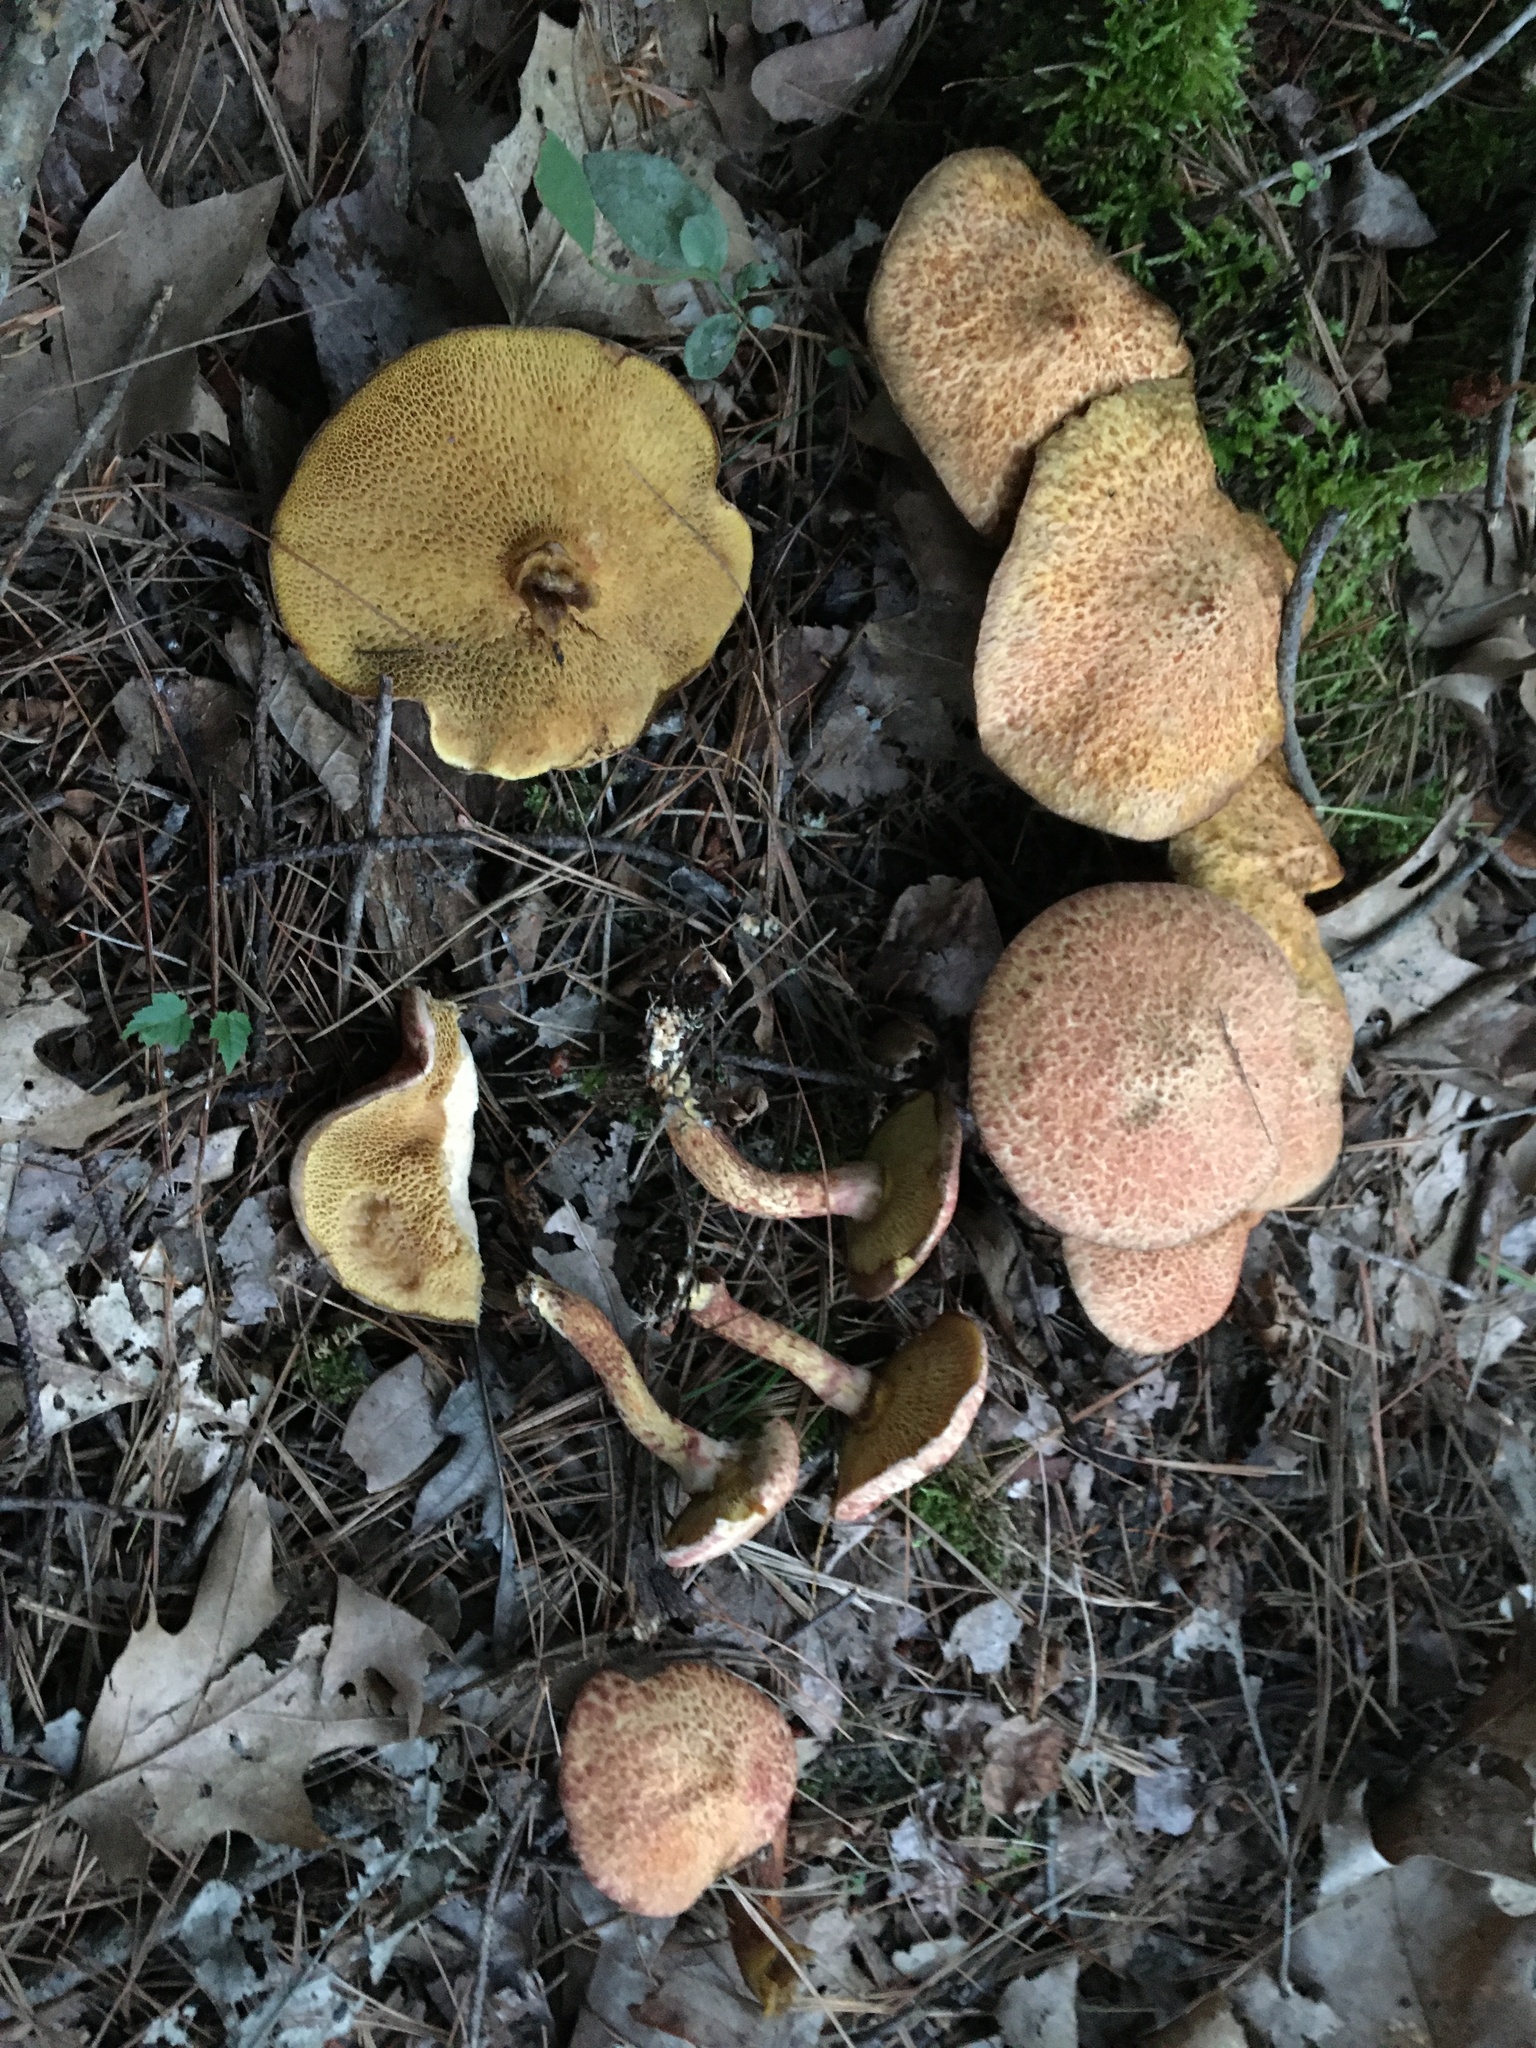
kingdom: Fungi
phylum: Basidiomycota
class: Agaricomycetes
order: Boletales
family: Suillaceae
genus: Suillus
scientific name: Suillus spraguei
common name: Painted suillus
